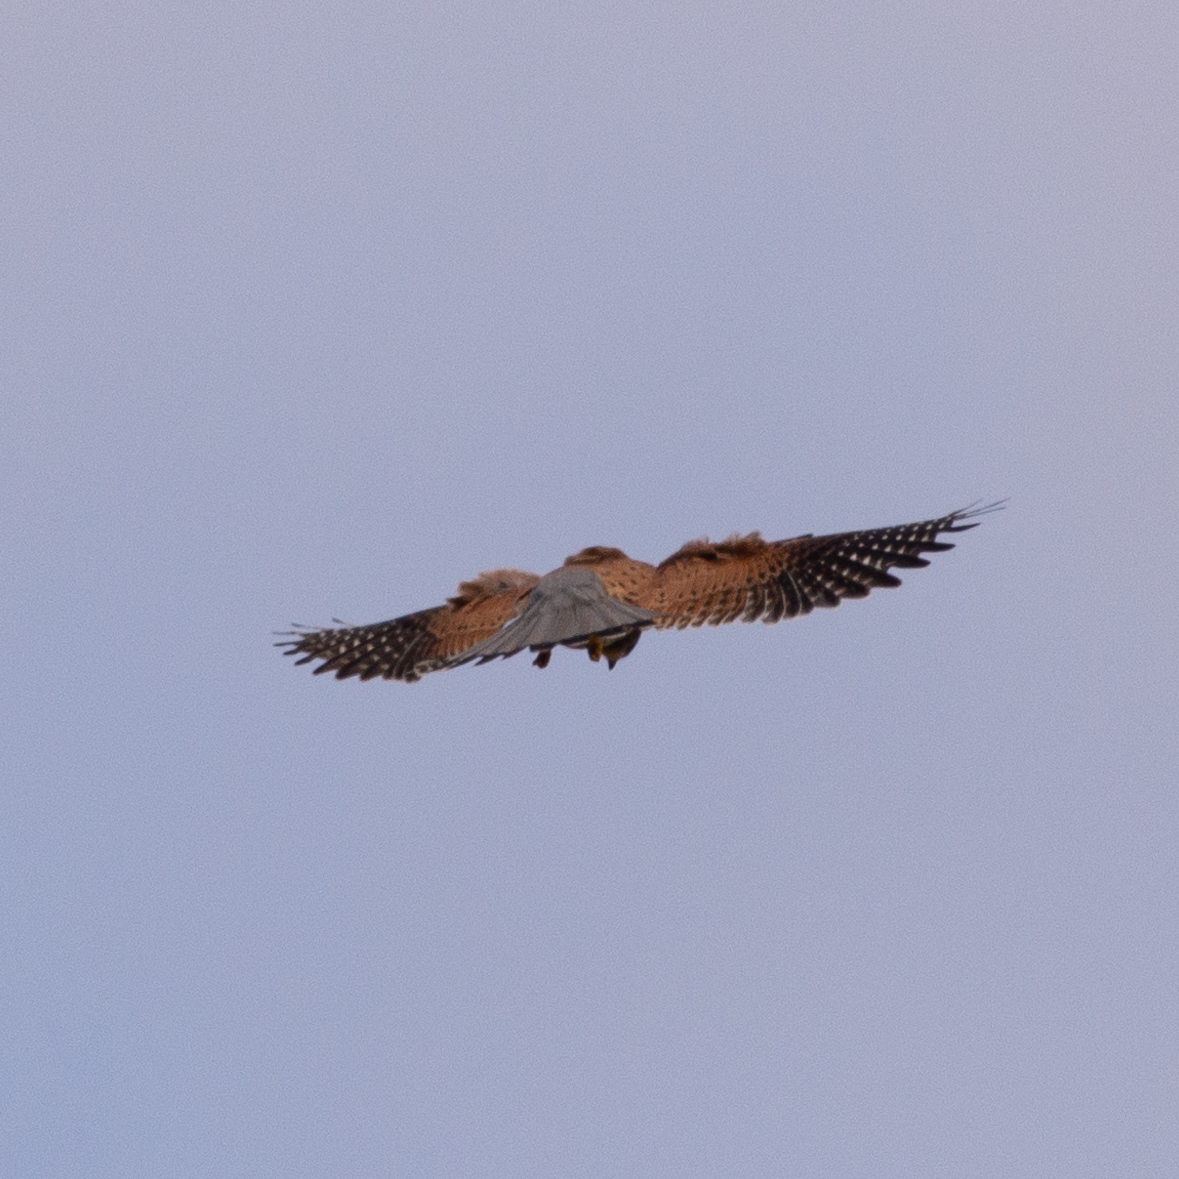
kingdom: Animalia
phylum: Chordata
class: Aves
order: Falconiformes
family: Falconidae
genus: Falco
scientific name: Falco tinnunculus
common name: Common kestrel
